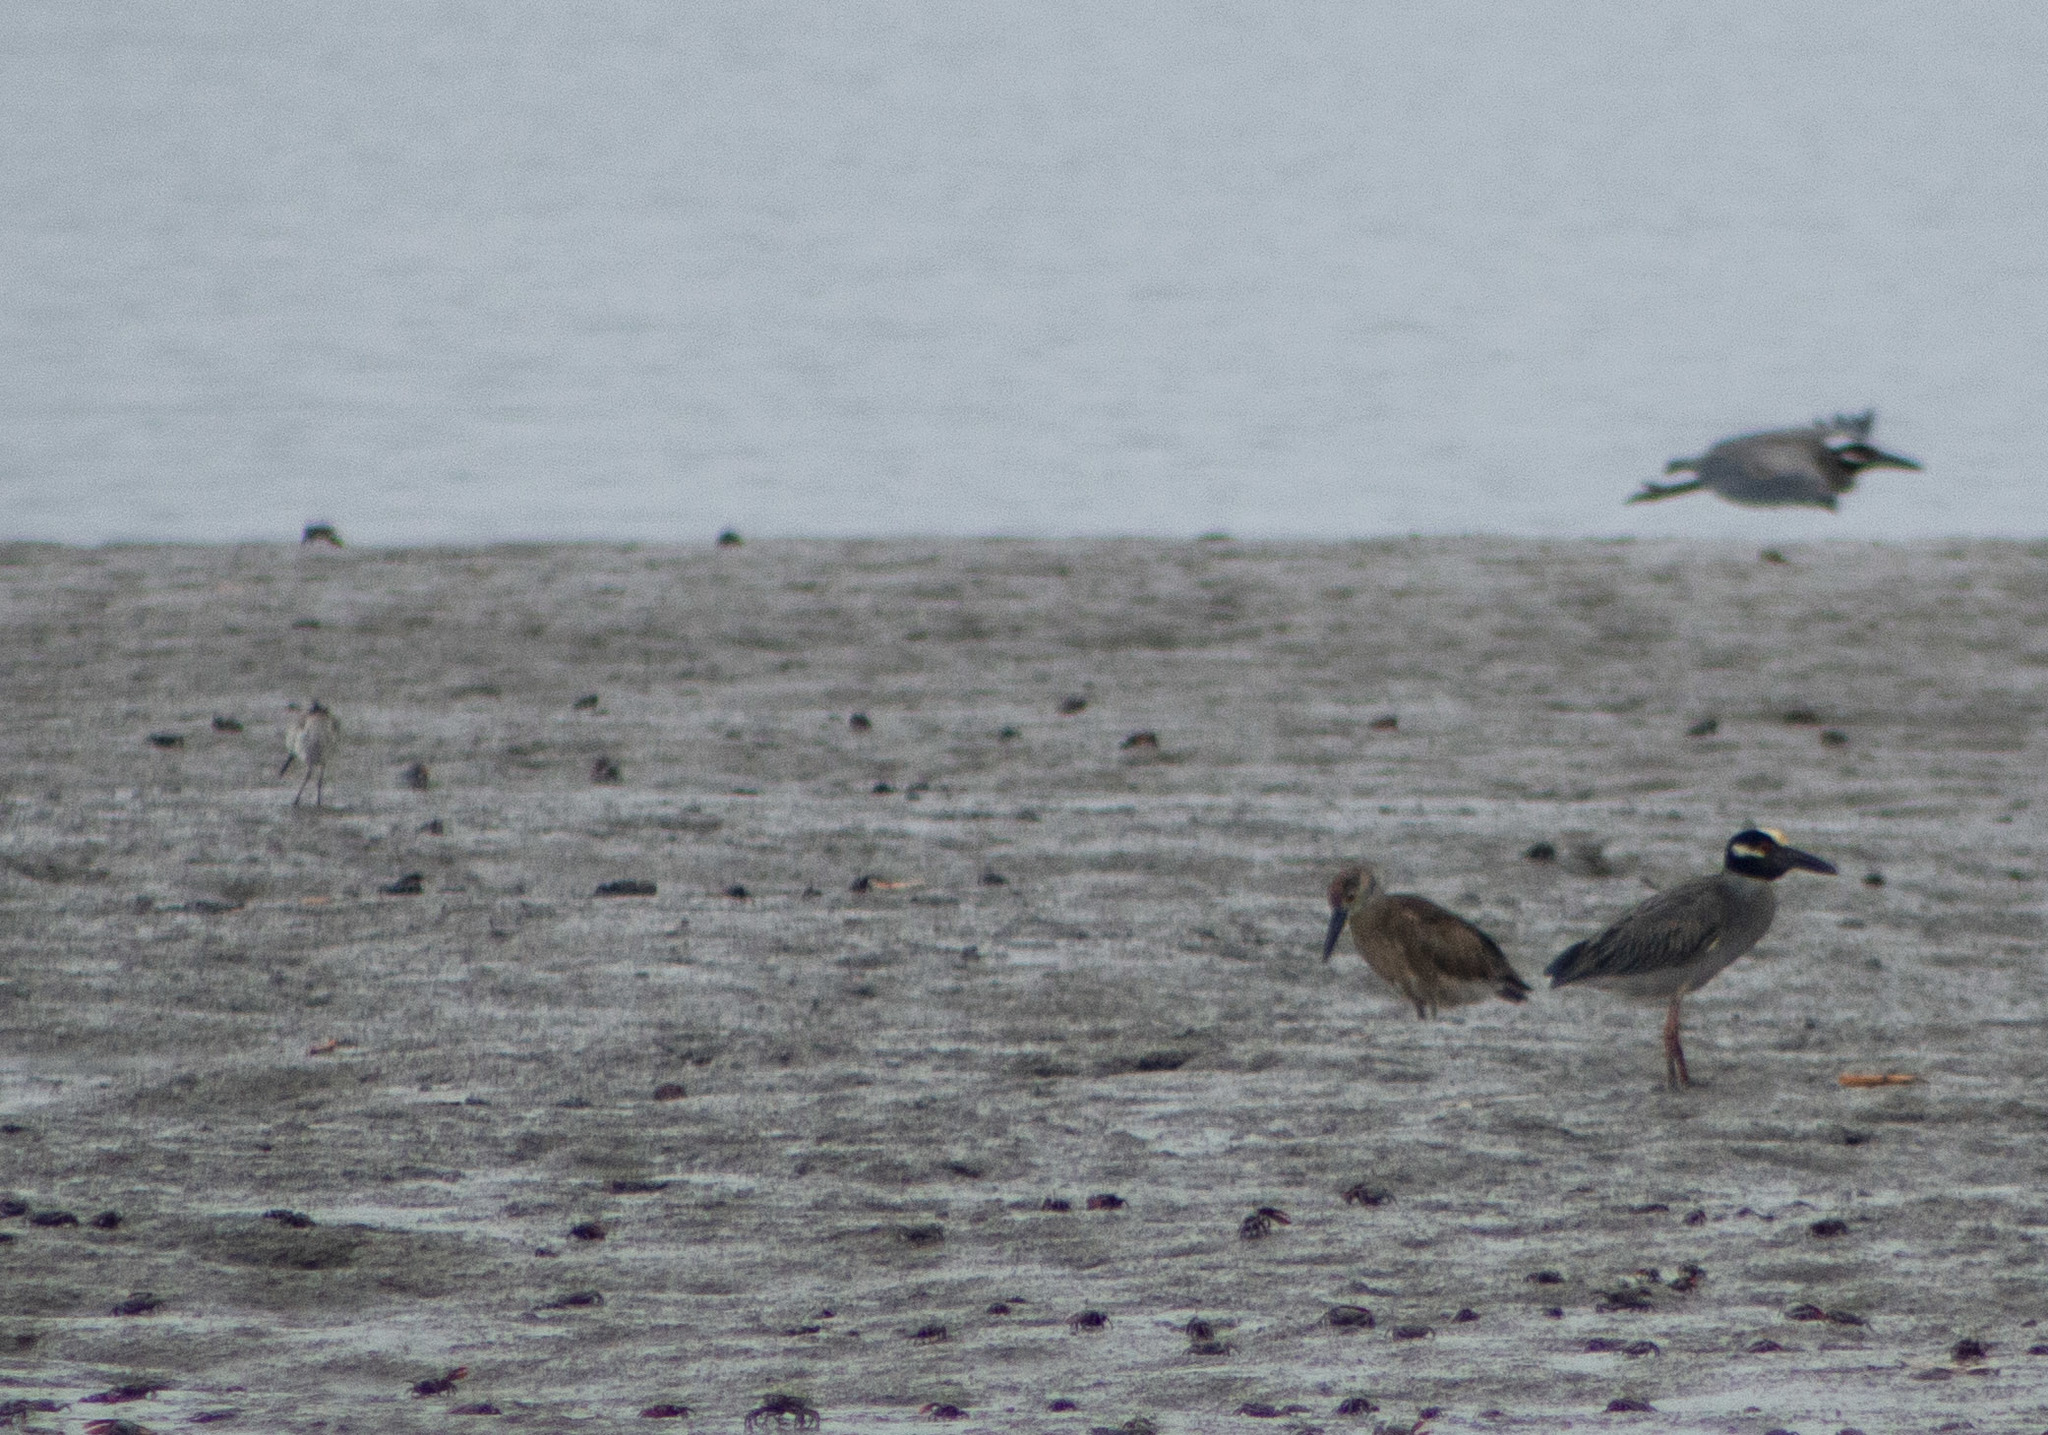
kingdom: Animalia
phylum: Chordata
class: Aves
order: Pelecaniformes
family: Ardeidae
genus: Nyctanassa
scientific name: Nyctanassa violacea
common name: Yellow-crowned night heron
